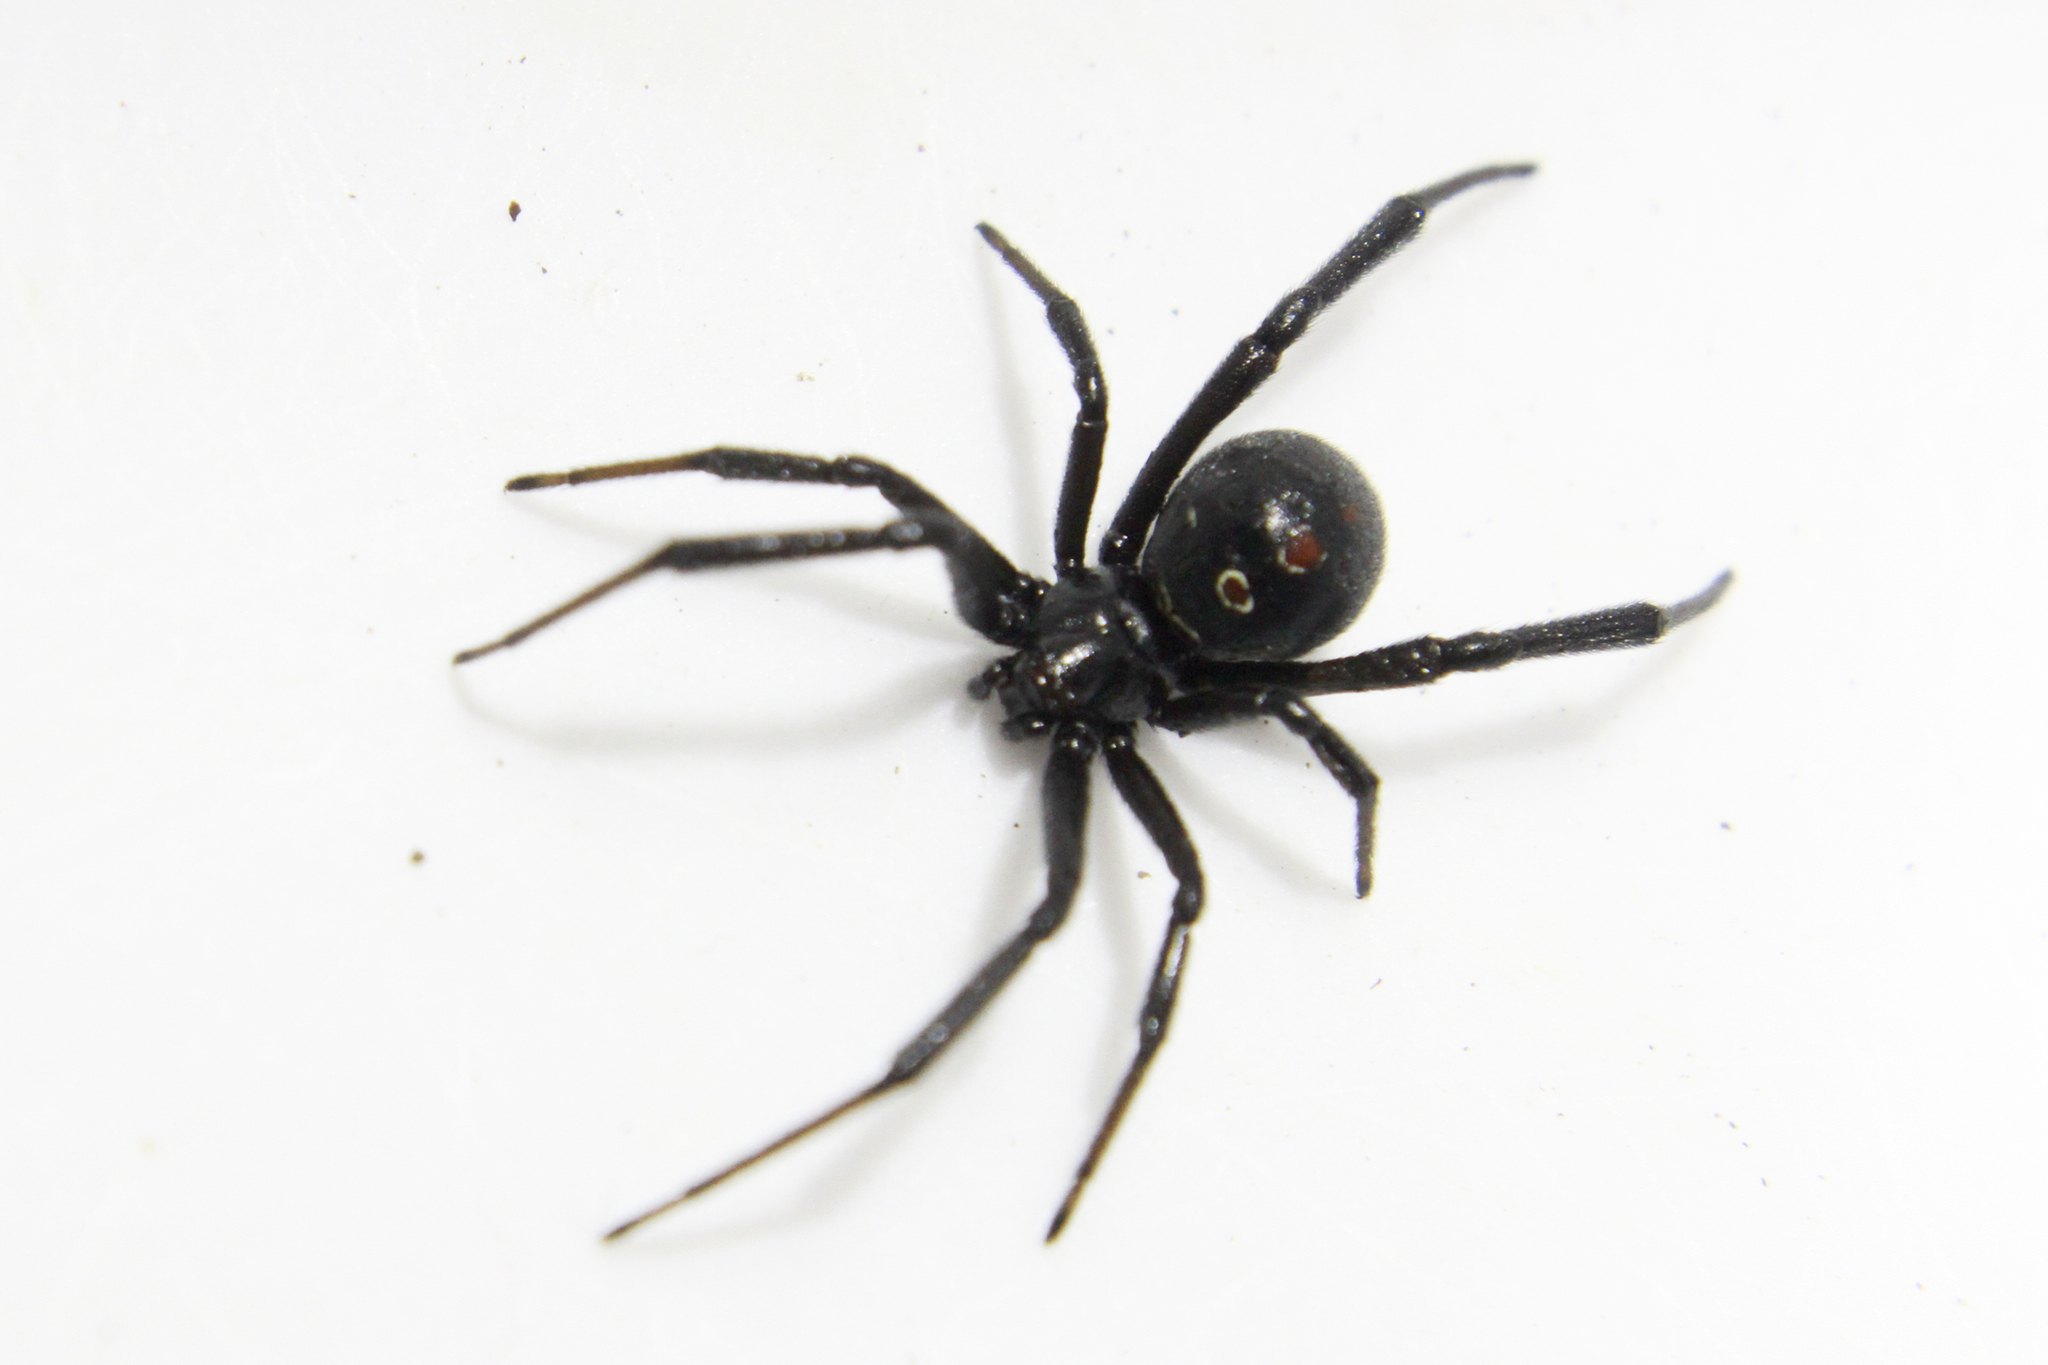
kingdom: Animalia
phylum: Arthropoda
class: Arachnida
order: Araneae
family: Theridiidae
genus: Latrodectus
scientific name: Latrodectus mactans
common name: Cobweb spiders
